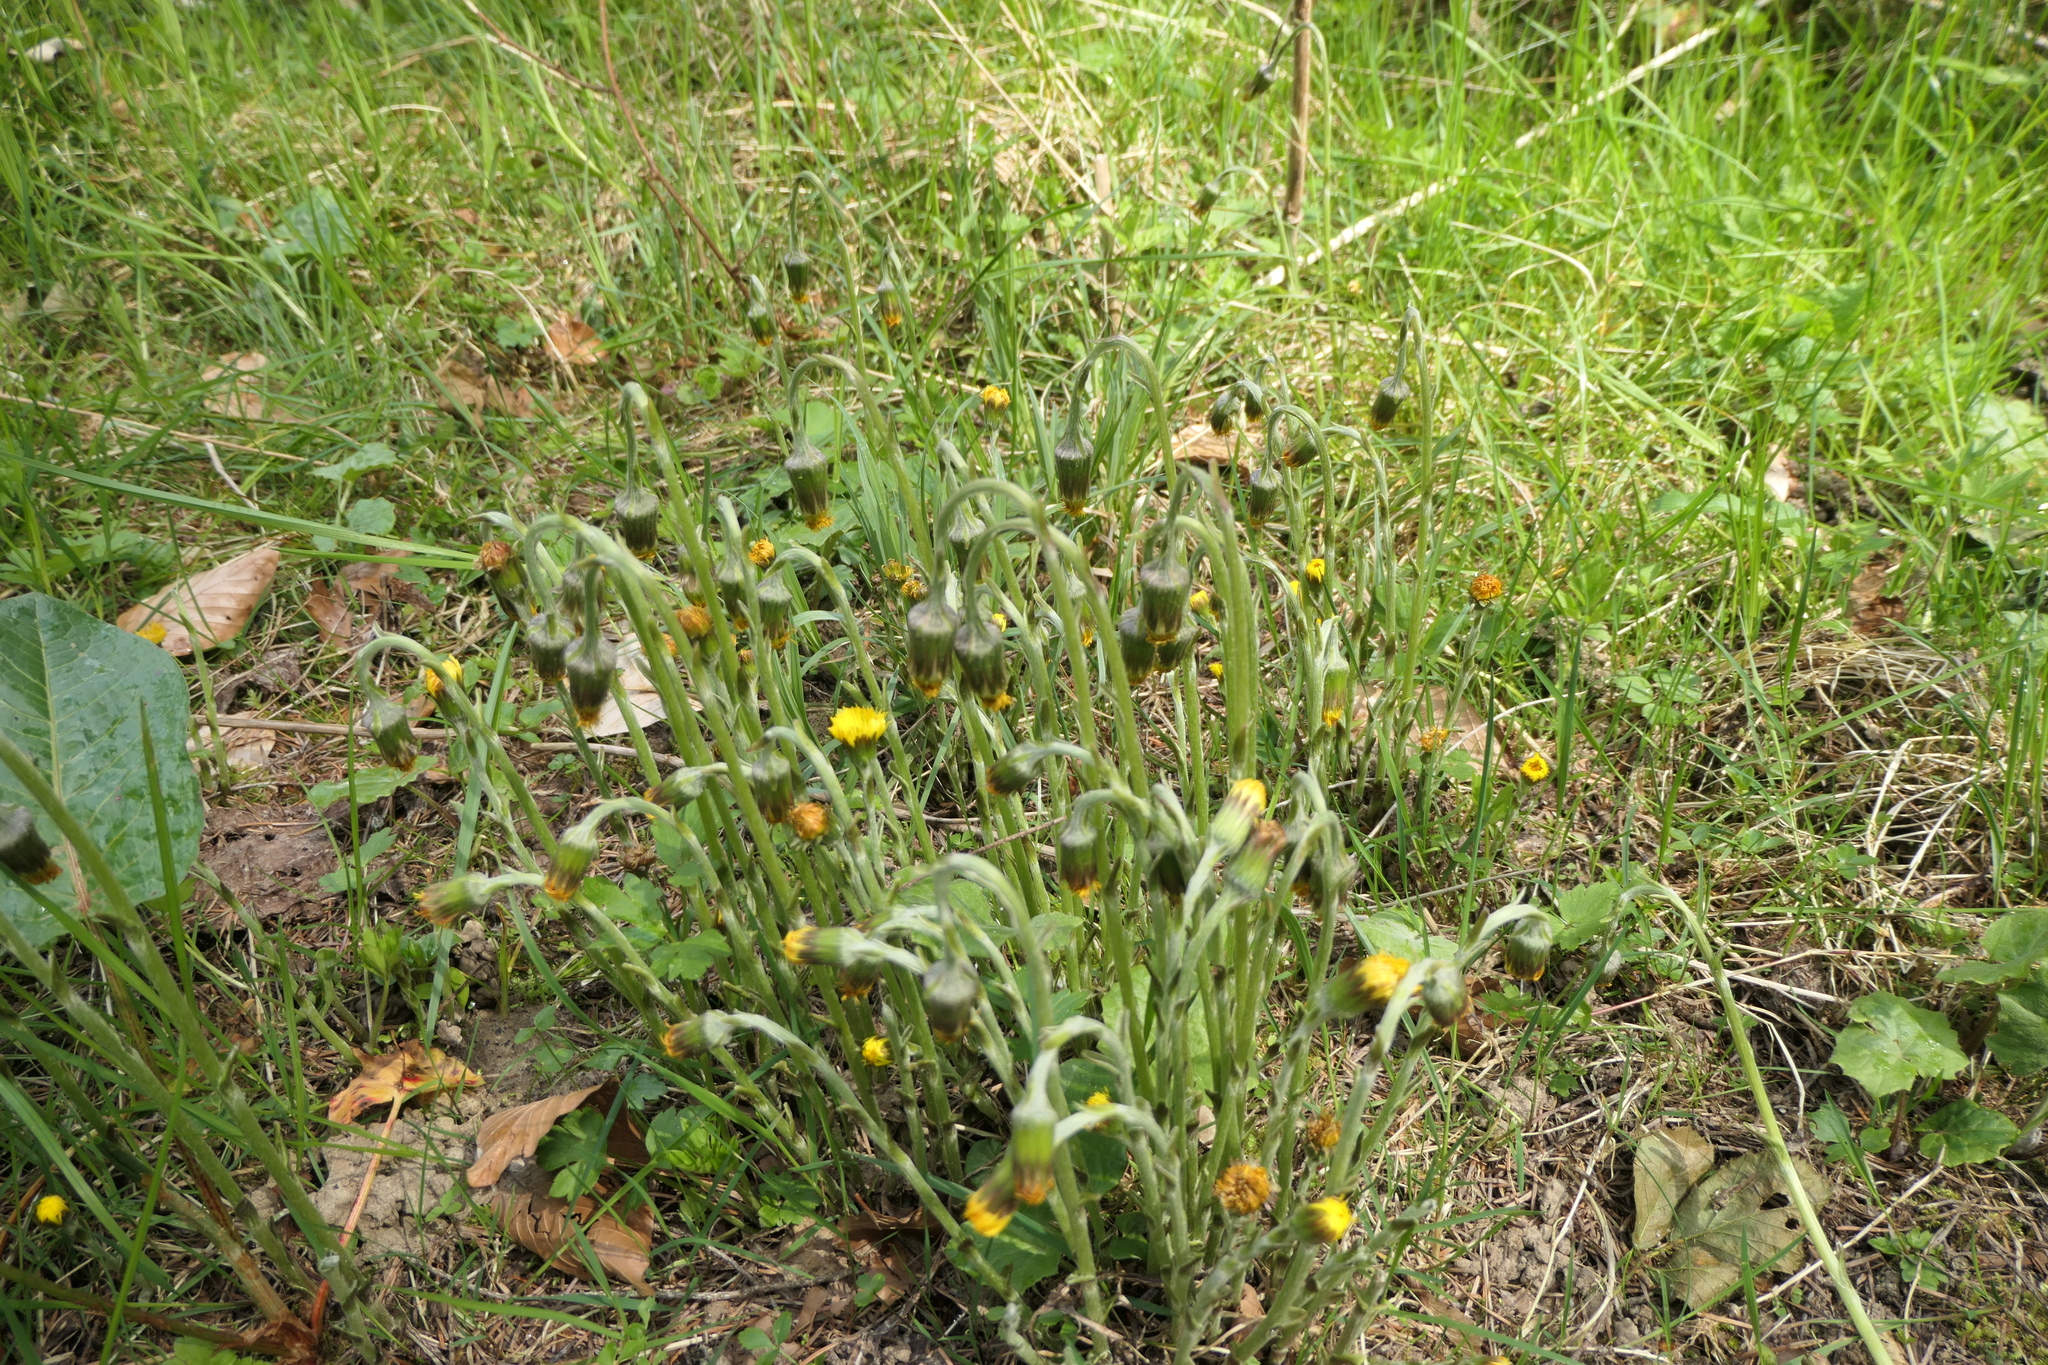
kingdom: Plantae
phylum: Tracheophyta
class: Magnoliopsida
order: Asterales
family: Asteraceae
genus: Tussilago
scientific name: Tussilago farfara
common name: Coltsfoot
